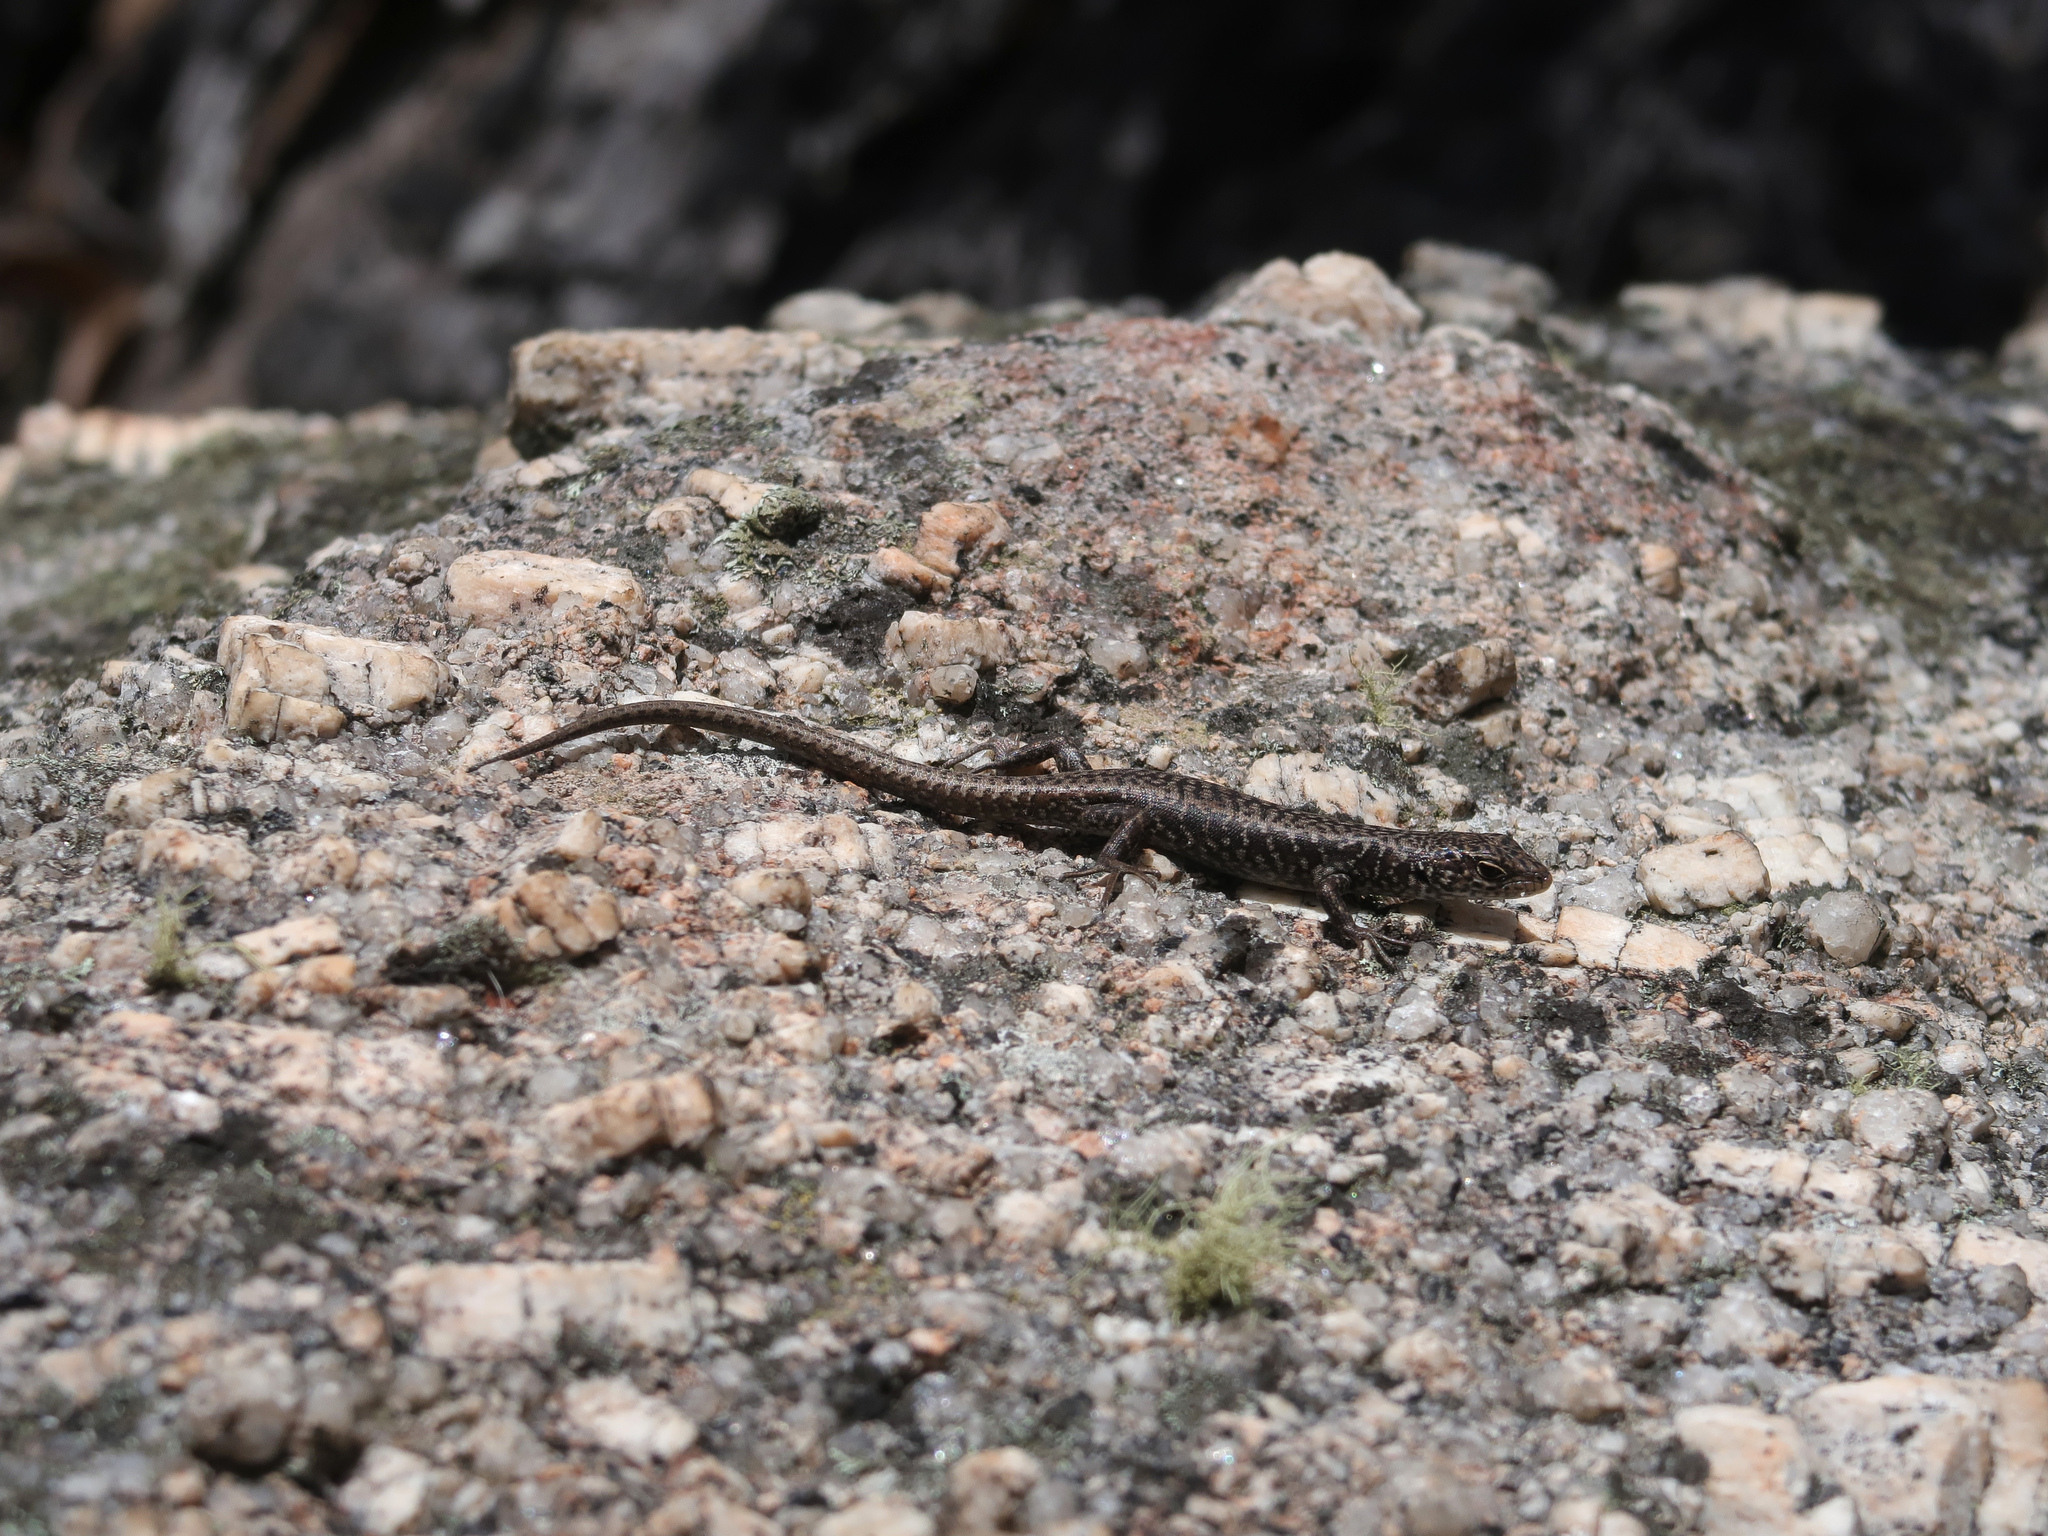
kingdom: Animalia
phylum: Chordata
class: Squamata
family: Scincidae
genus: Carinascincus
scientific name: Carinascincus ocellatus
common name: Ocellated cool-skink
